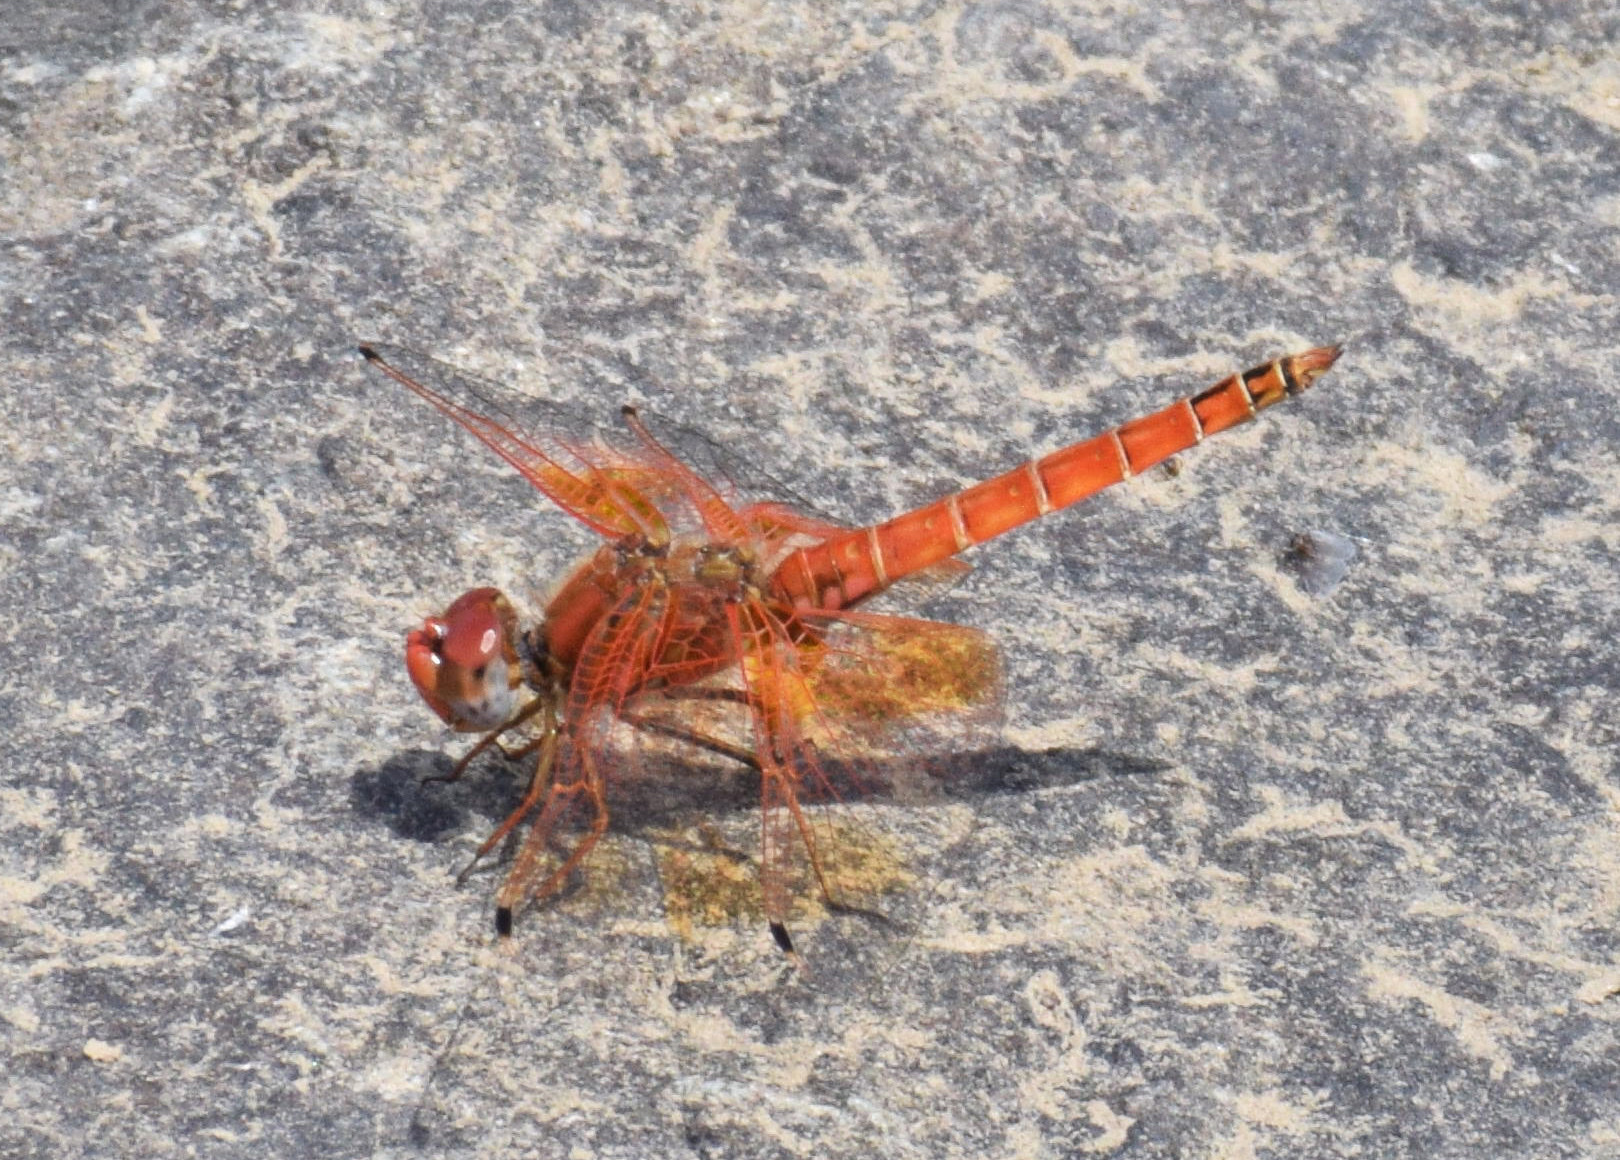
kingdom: Animalia
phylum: Arthropoda
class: Insecta
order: Odonata
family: Libellulidae
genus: Trithemis
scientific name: Trithemis kirbyi
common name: Kirby's dropwing
